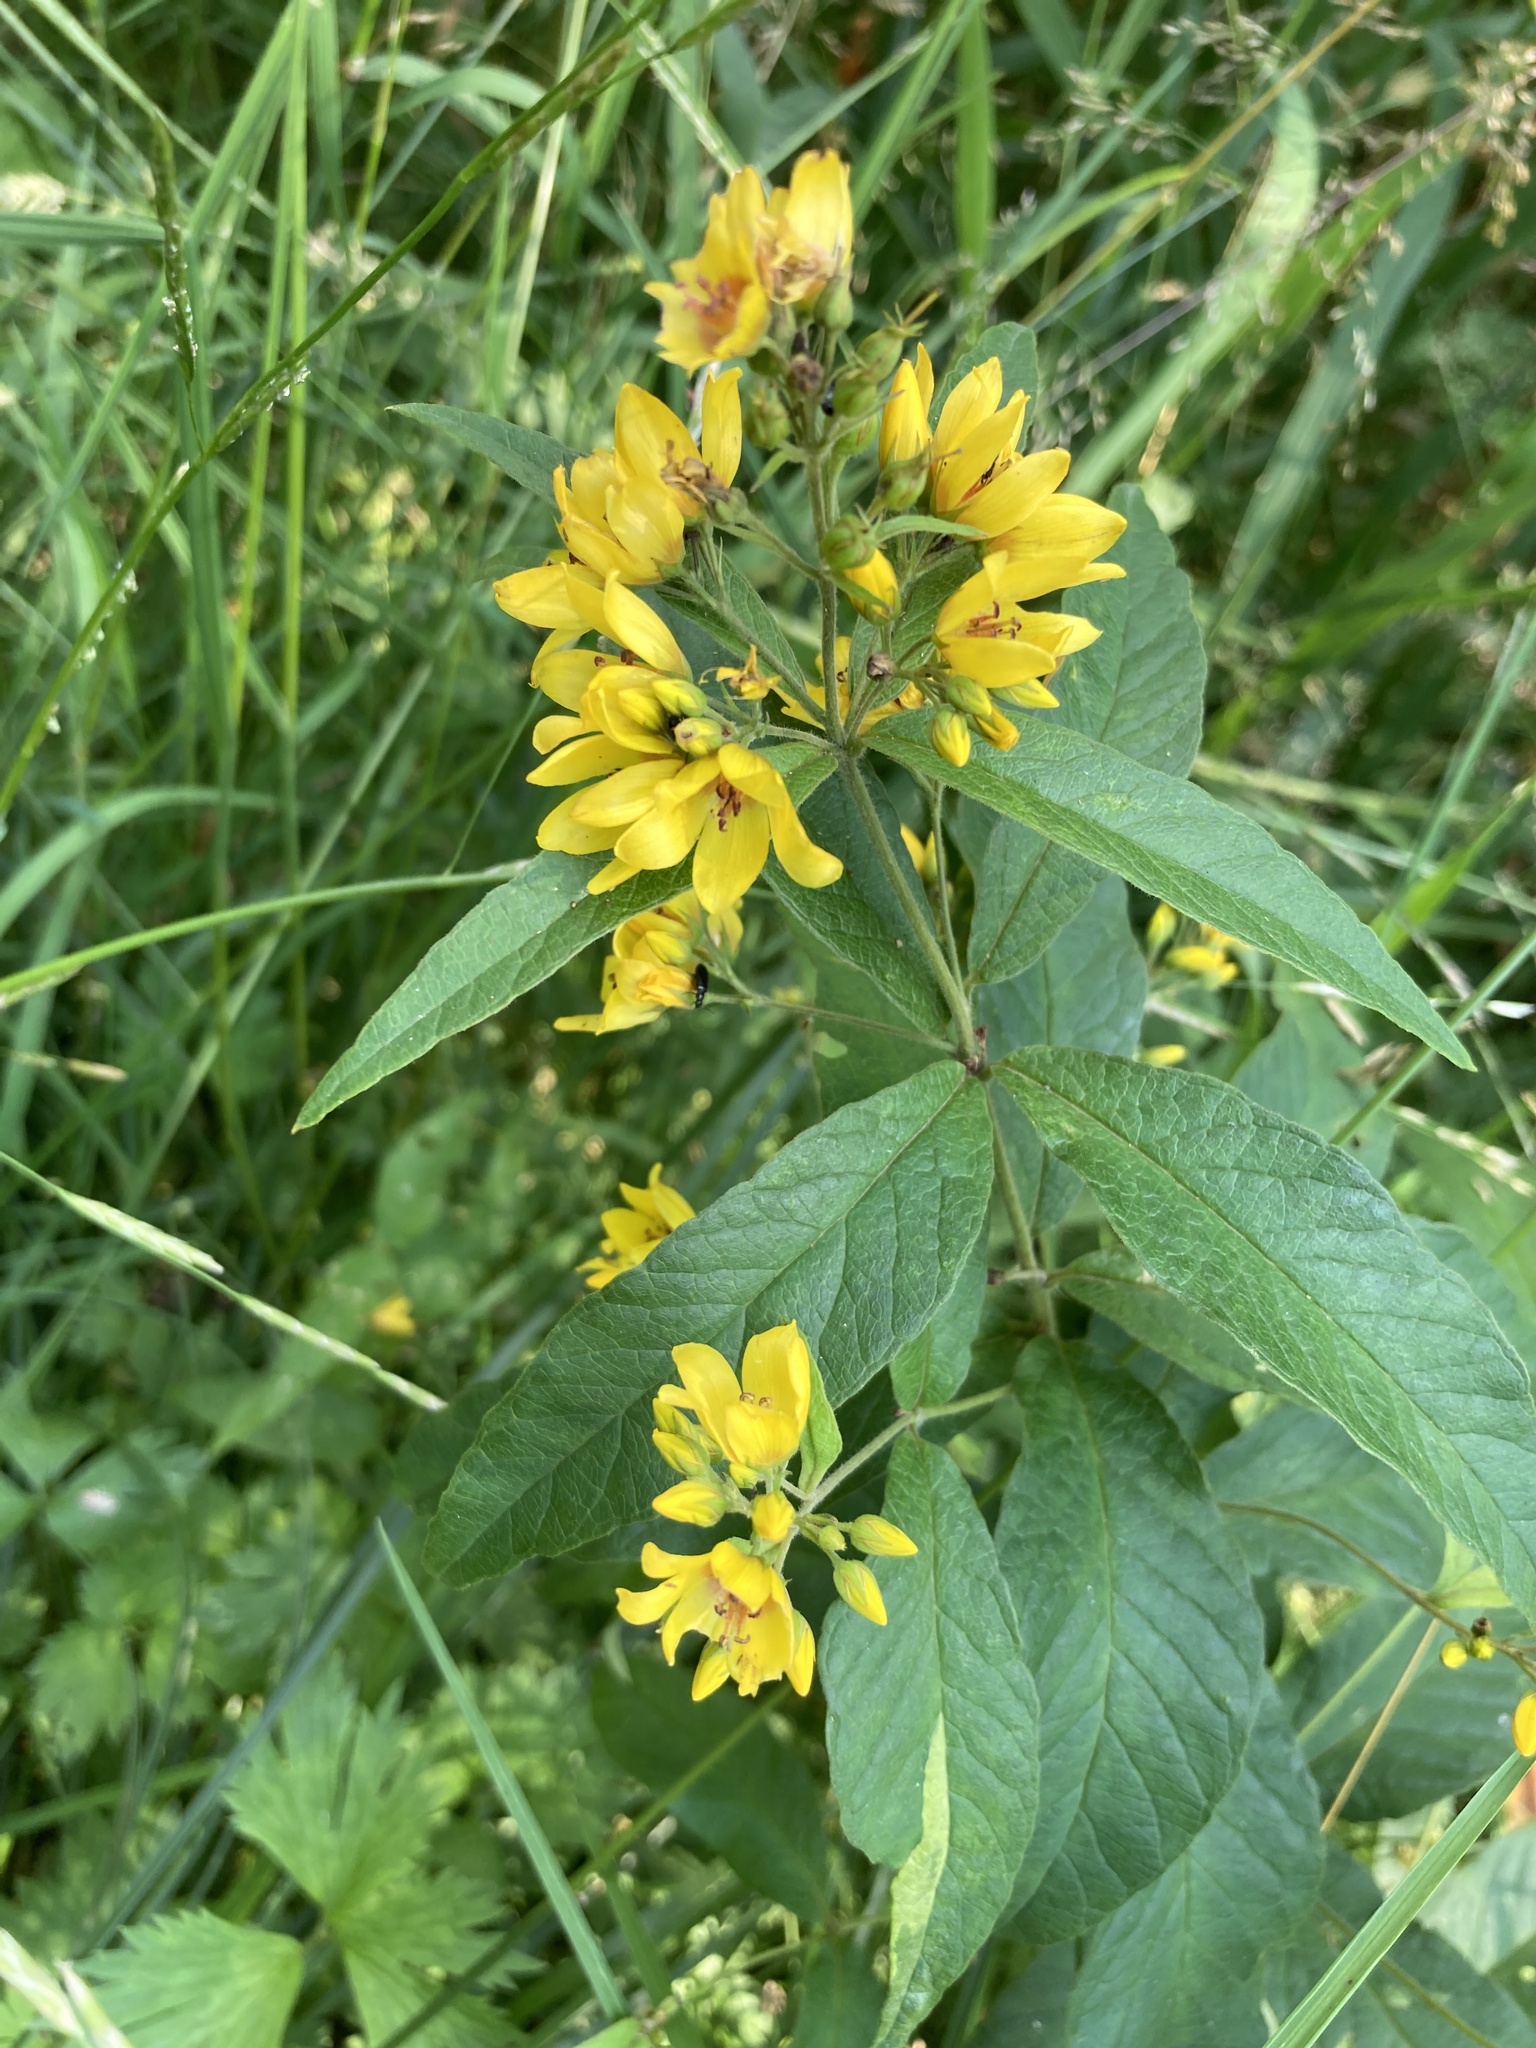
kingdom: Plantae
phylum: Tracheophyta
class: Magnoliopsida
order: Ericales
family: Primulaceae
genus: Lysimachia
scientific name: Lysimachia vulgaris
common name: Yellow loosestrife
